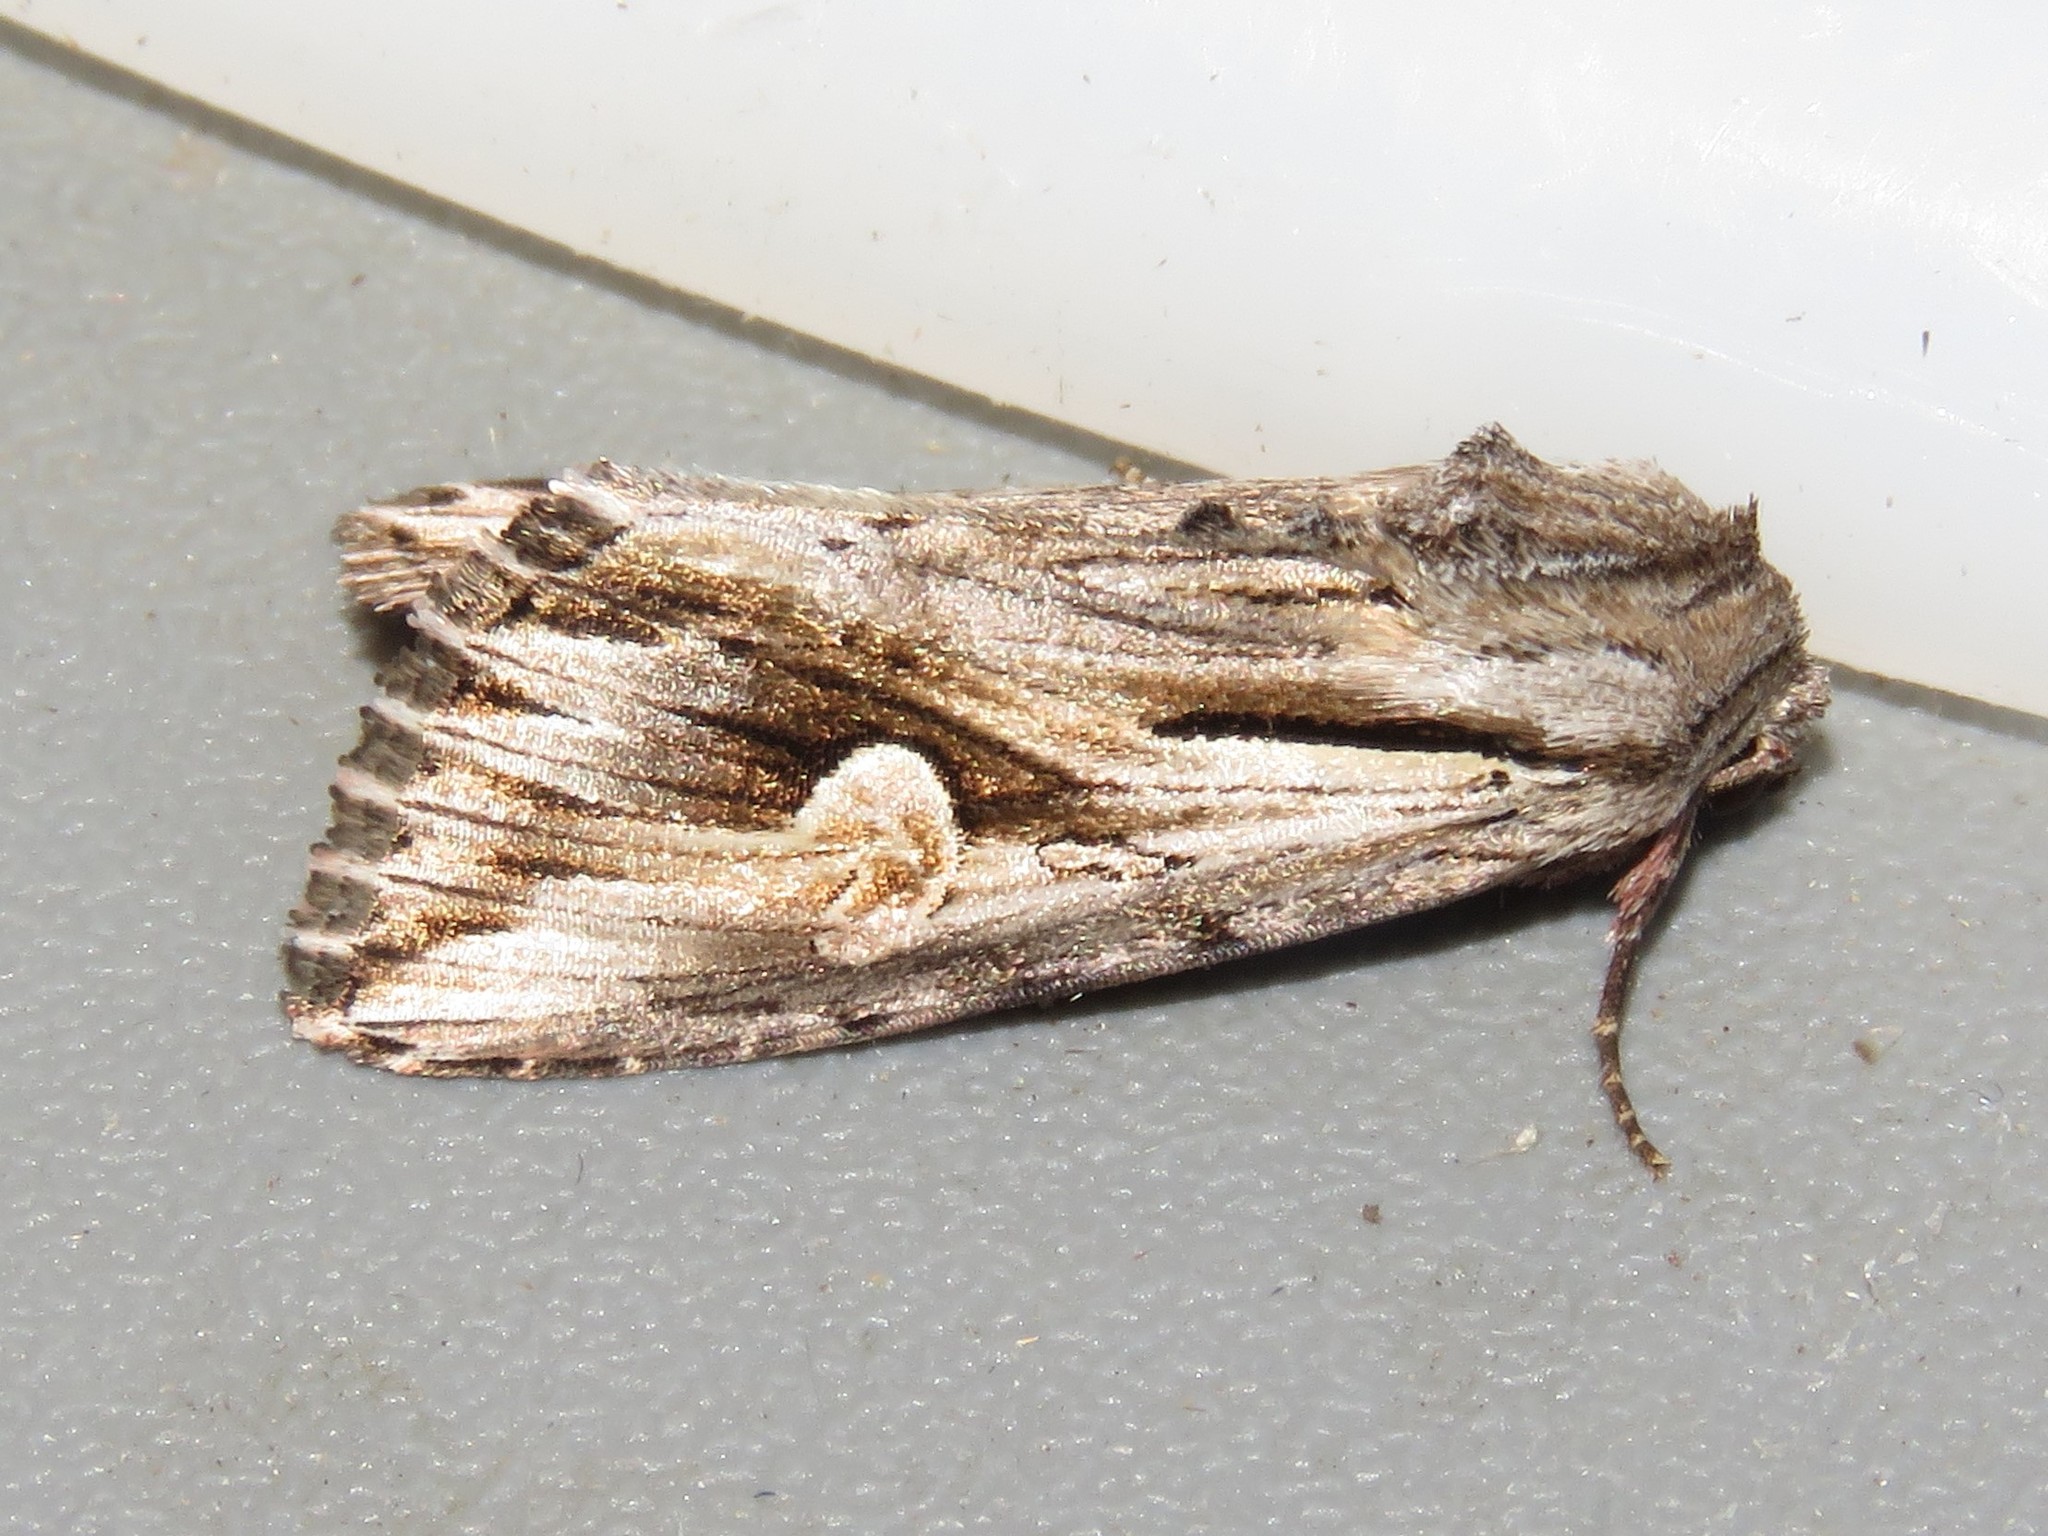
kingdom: Animalia
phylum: Arthropoda
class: Insecta
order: Lepidoptera
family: Noctuidae
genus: Nedra
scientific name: Nedra ramosula
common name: Gray half-spot
